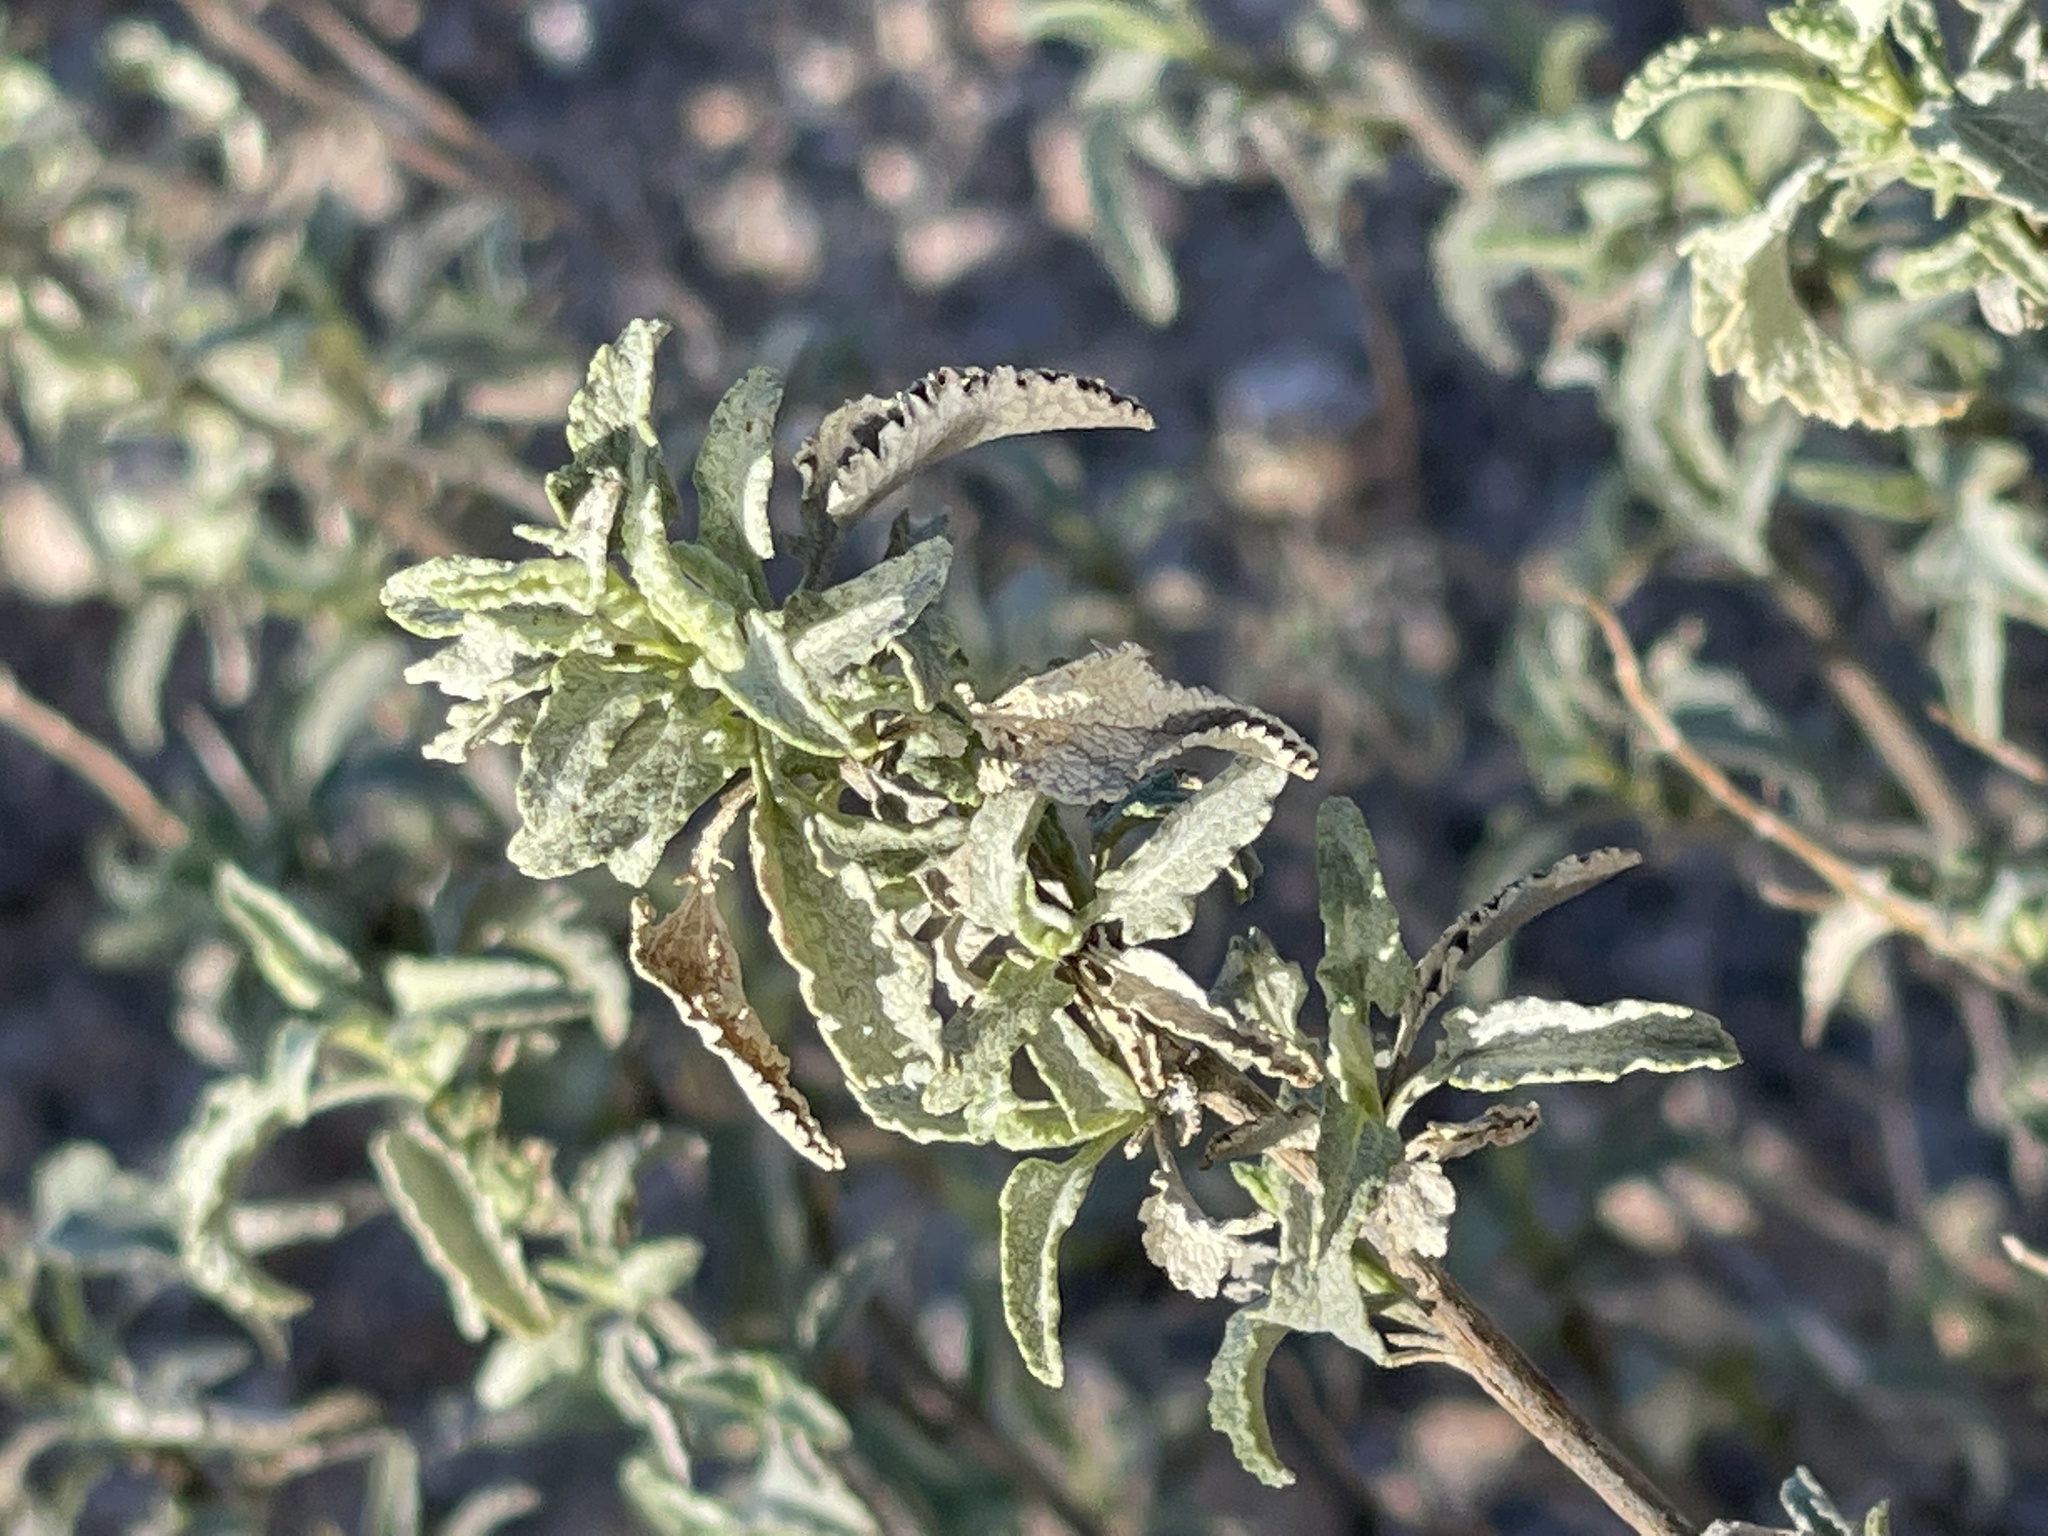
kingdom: Plantae
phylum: Tracheophyta
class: Magnoliopsida
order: Asterales
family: Asteraceae
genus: Ambrosia
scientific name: Ambrosia deltoidea
